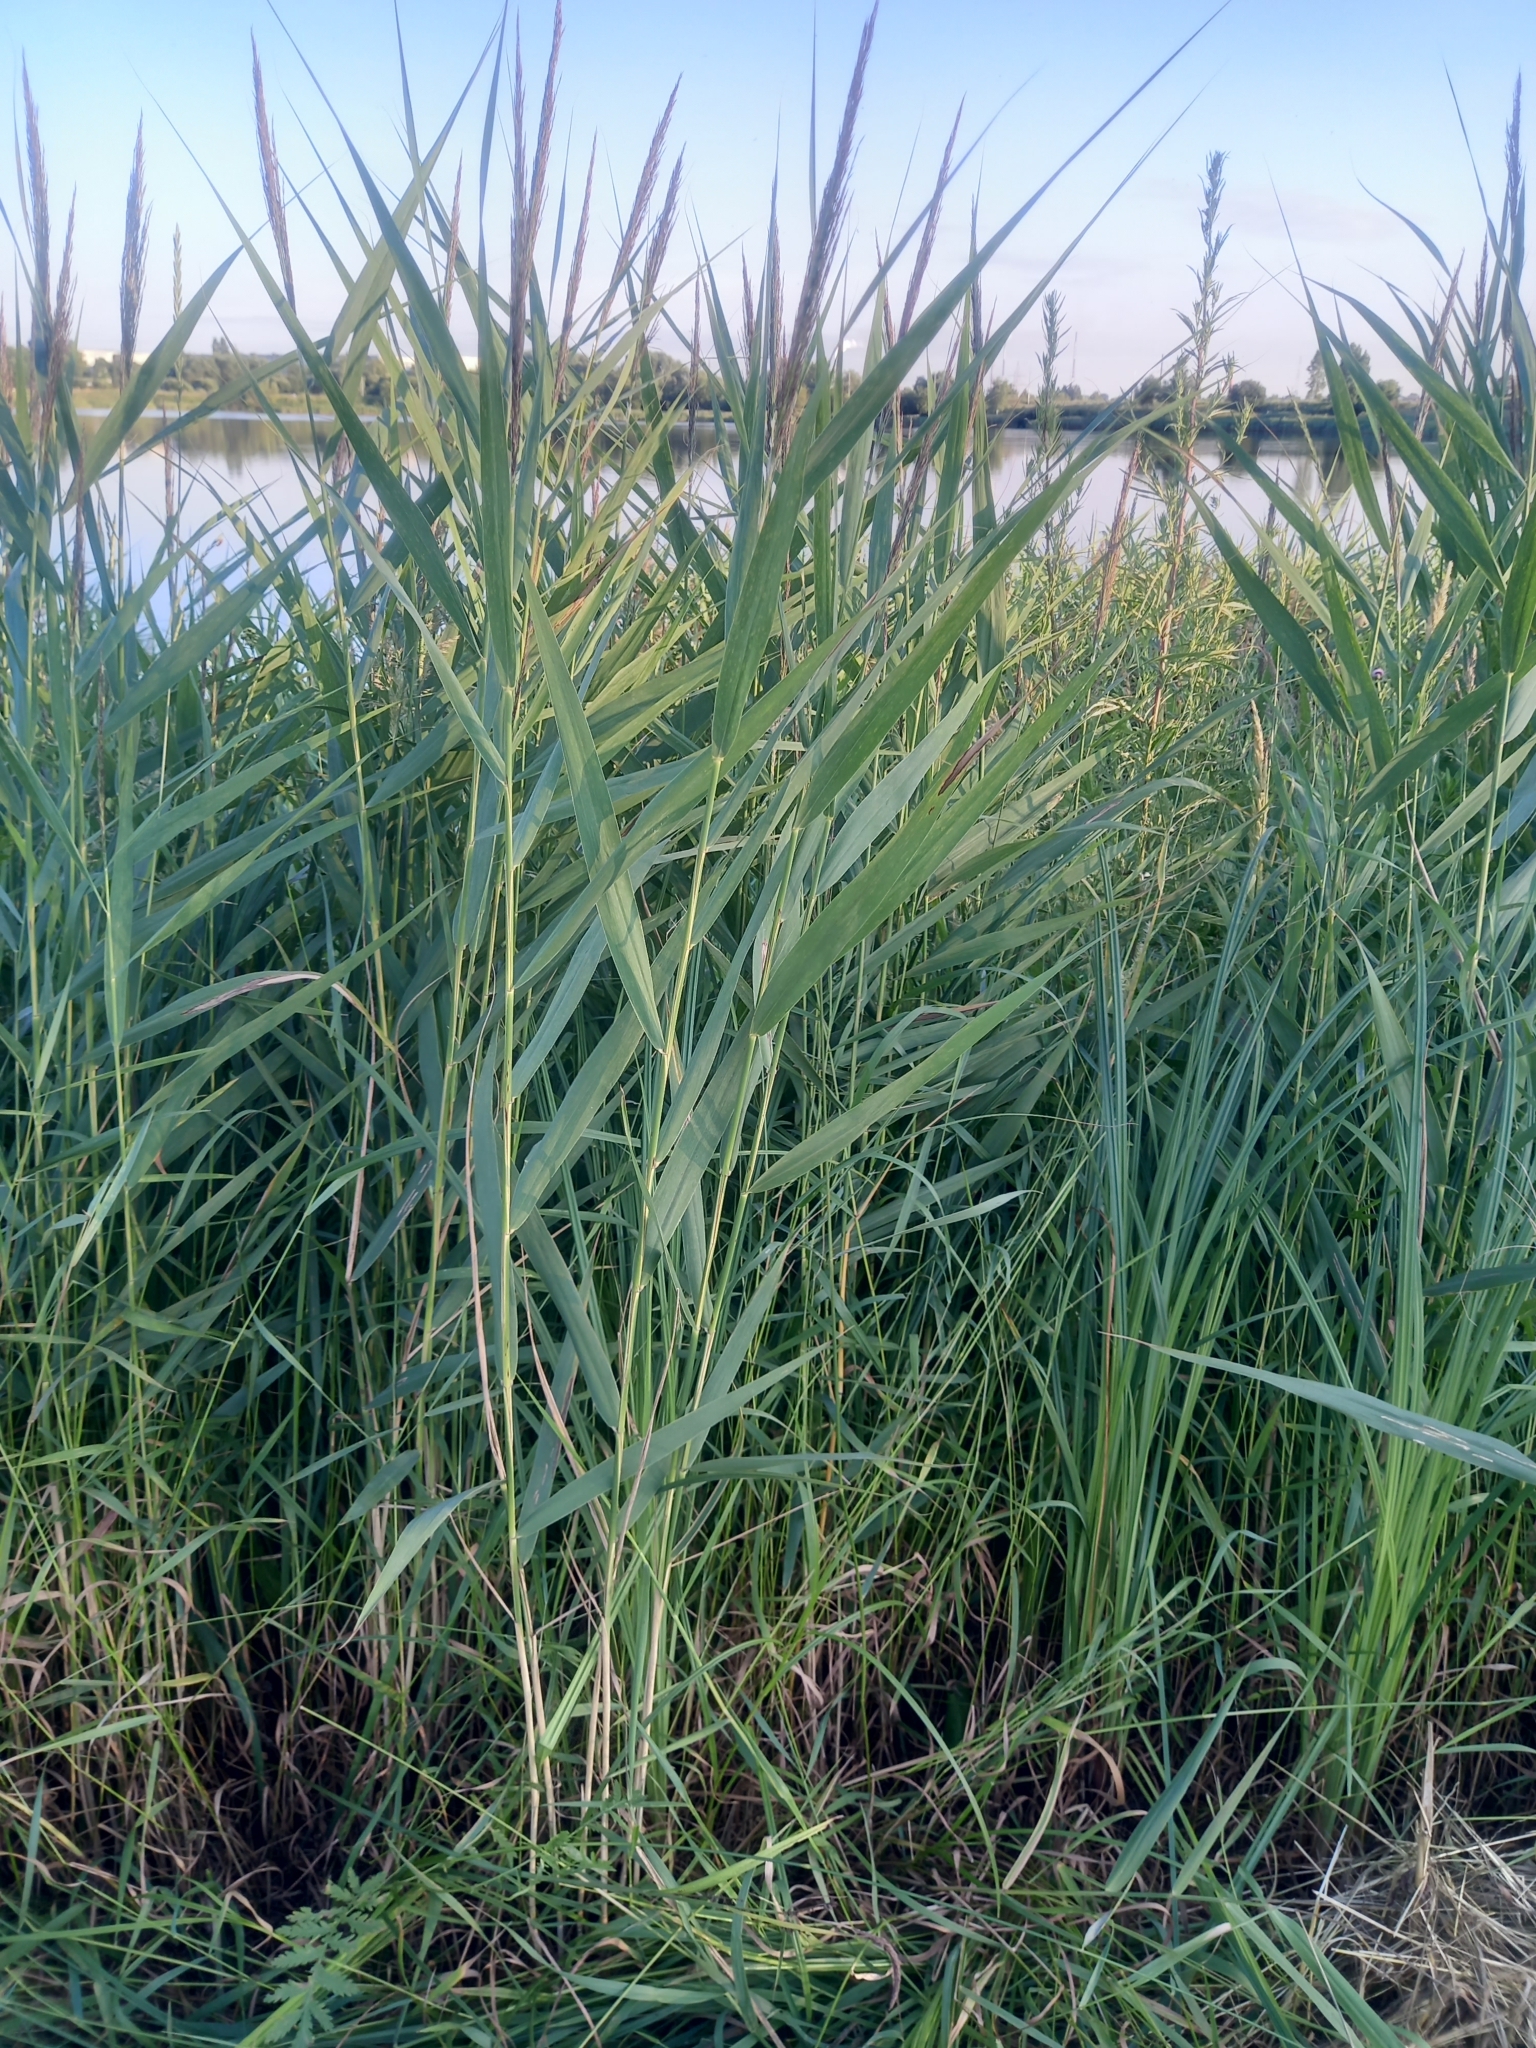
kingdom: Plantae
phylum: Tracheophyta
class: Liliopsida
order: Poales
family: Poaceae
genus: Phragmites
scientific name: Phragmites australis
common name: Common reed
